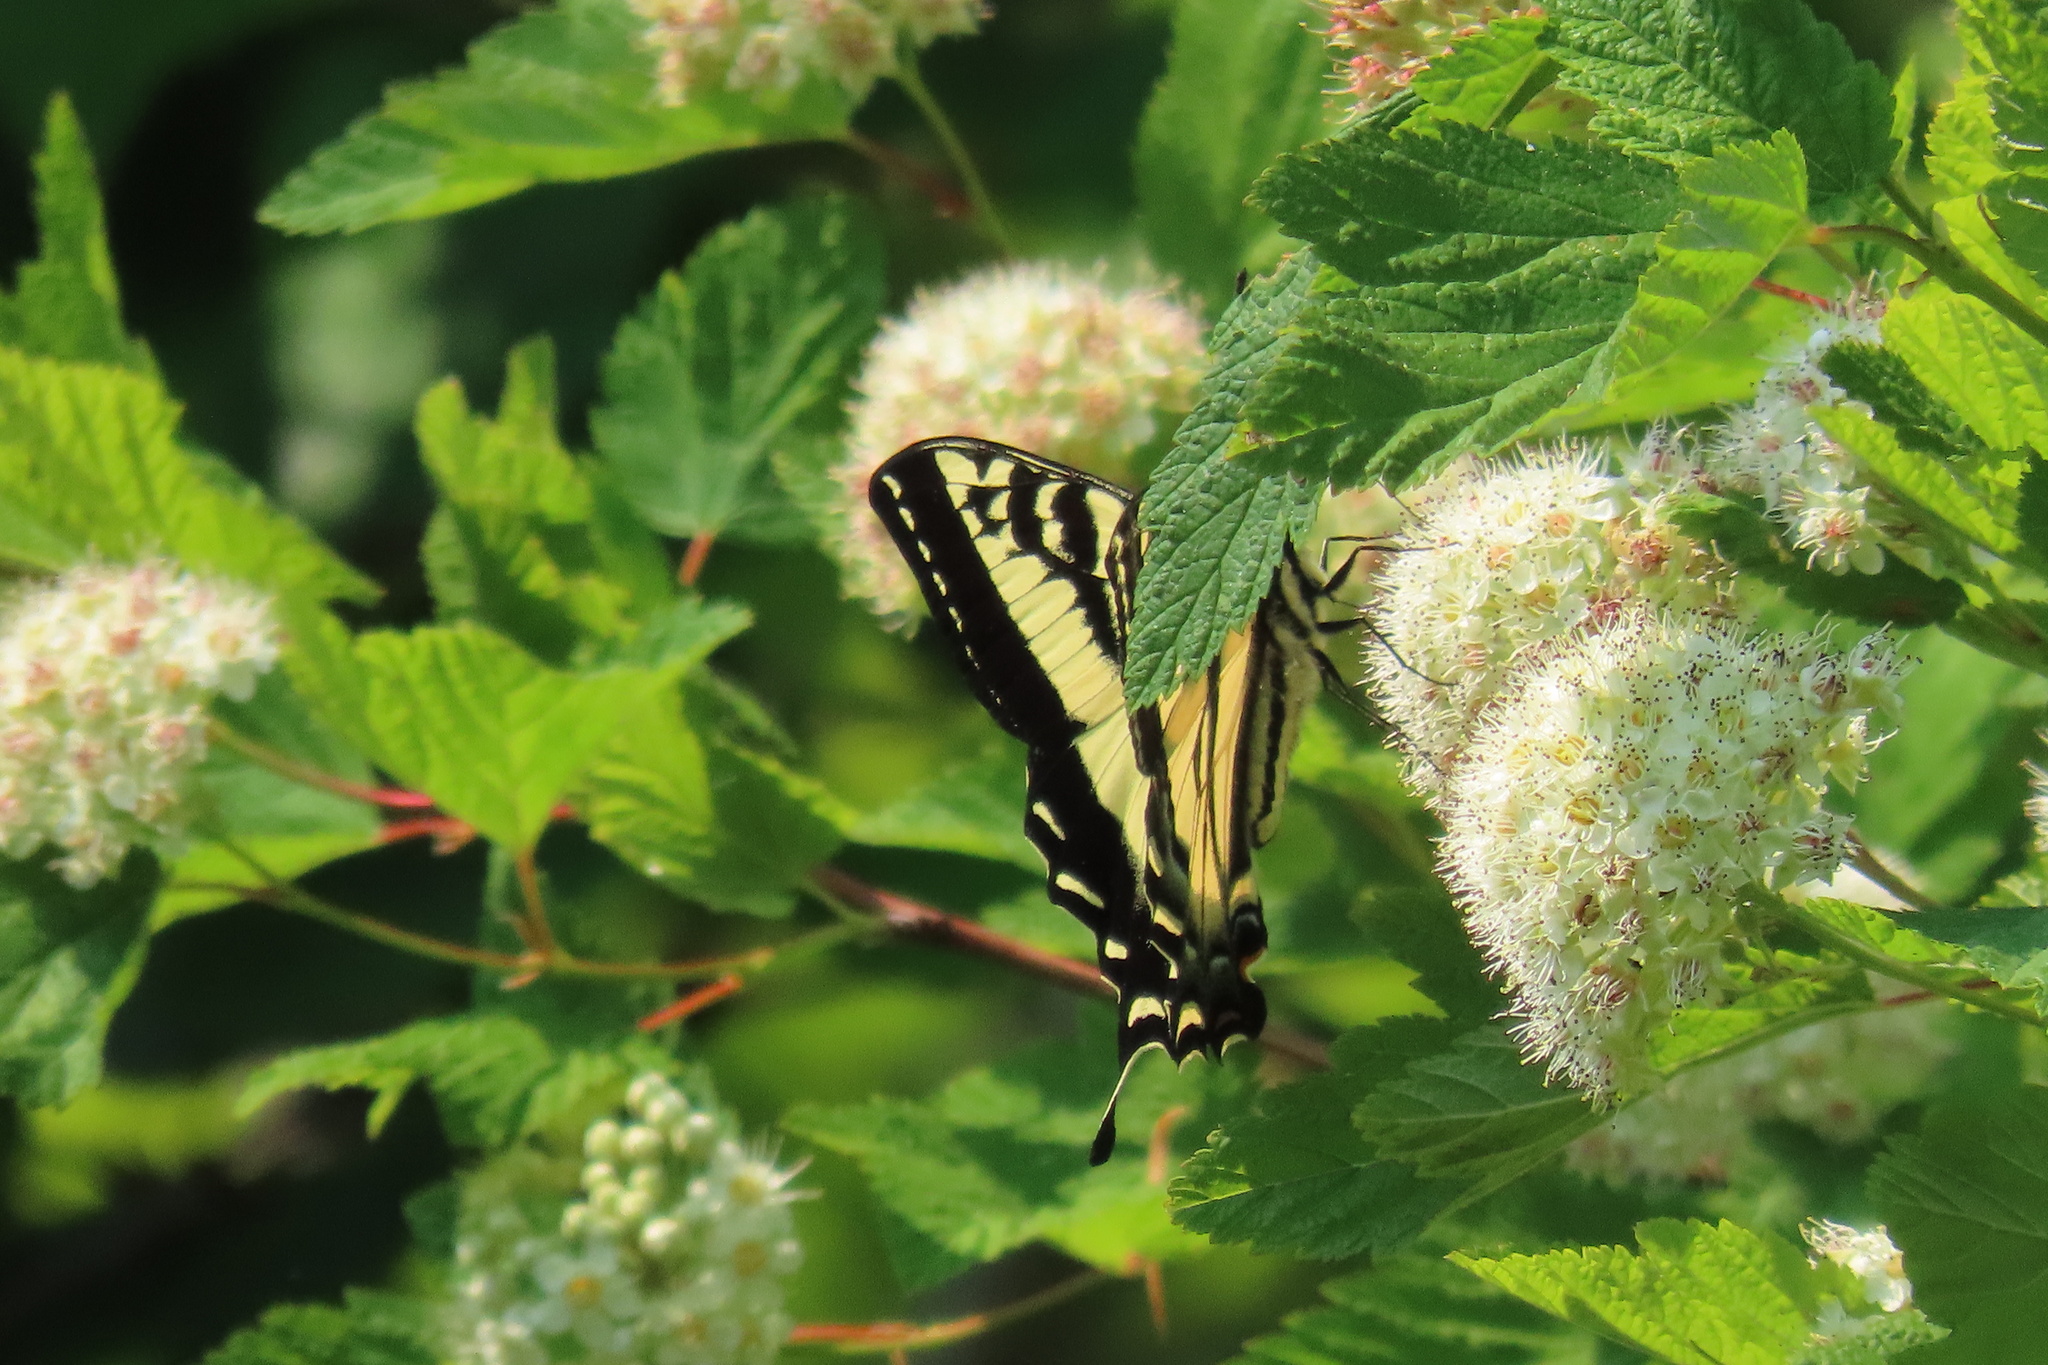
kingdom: Animalia
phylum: Arthropoda
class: Insecta
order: Lepidoptera
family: Papilionidae
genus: Papilio
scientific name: Papilio rutulus
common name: Western tiger swallowtail
